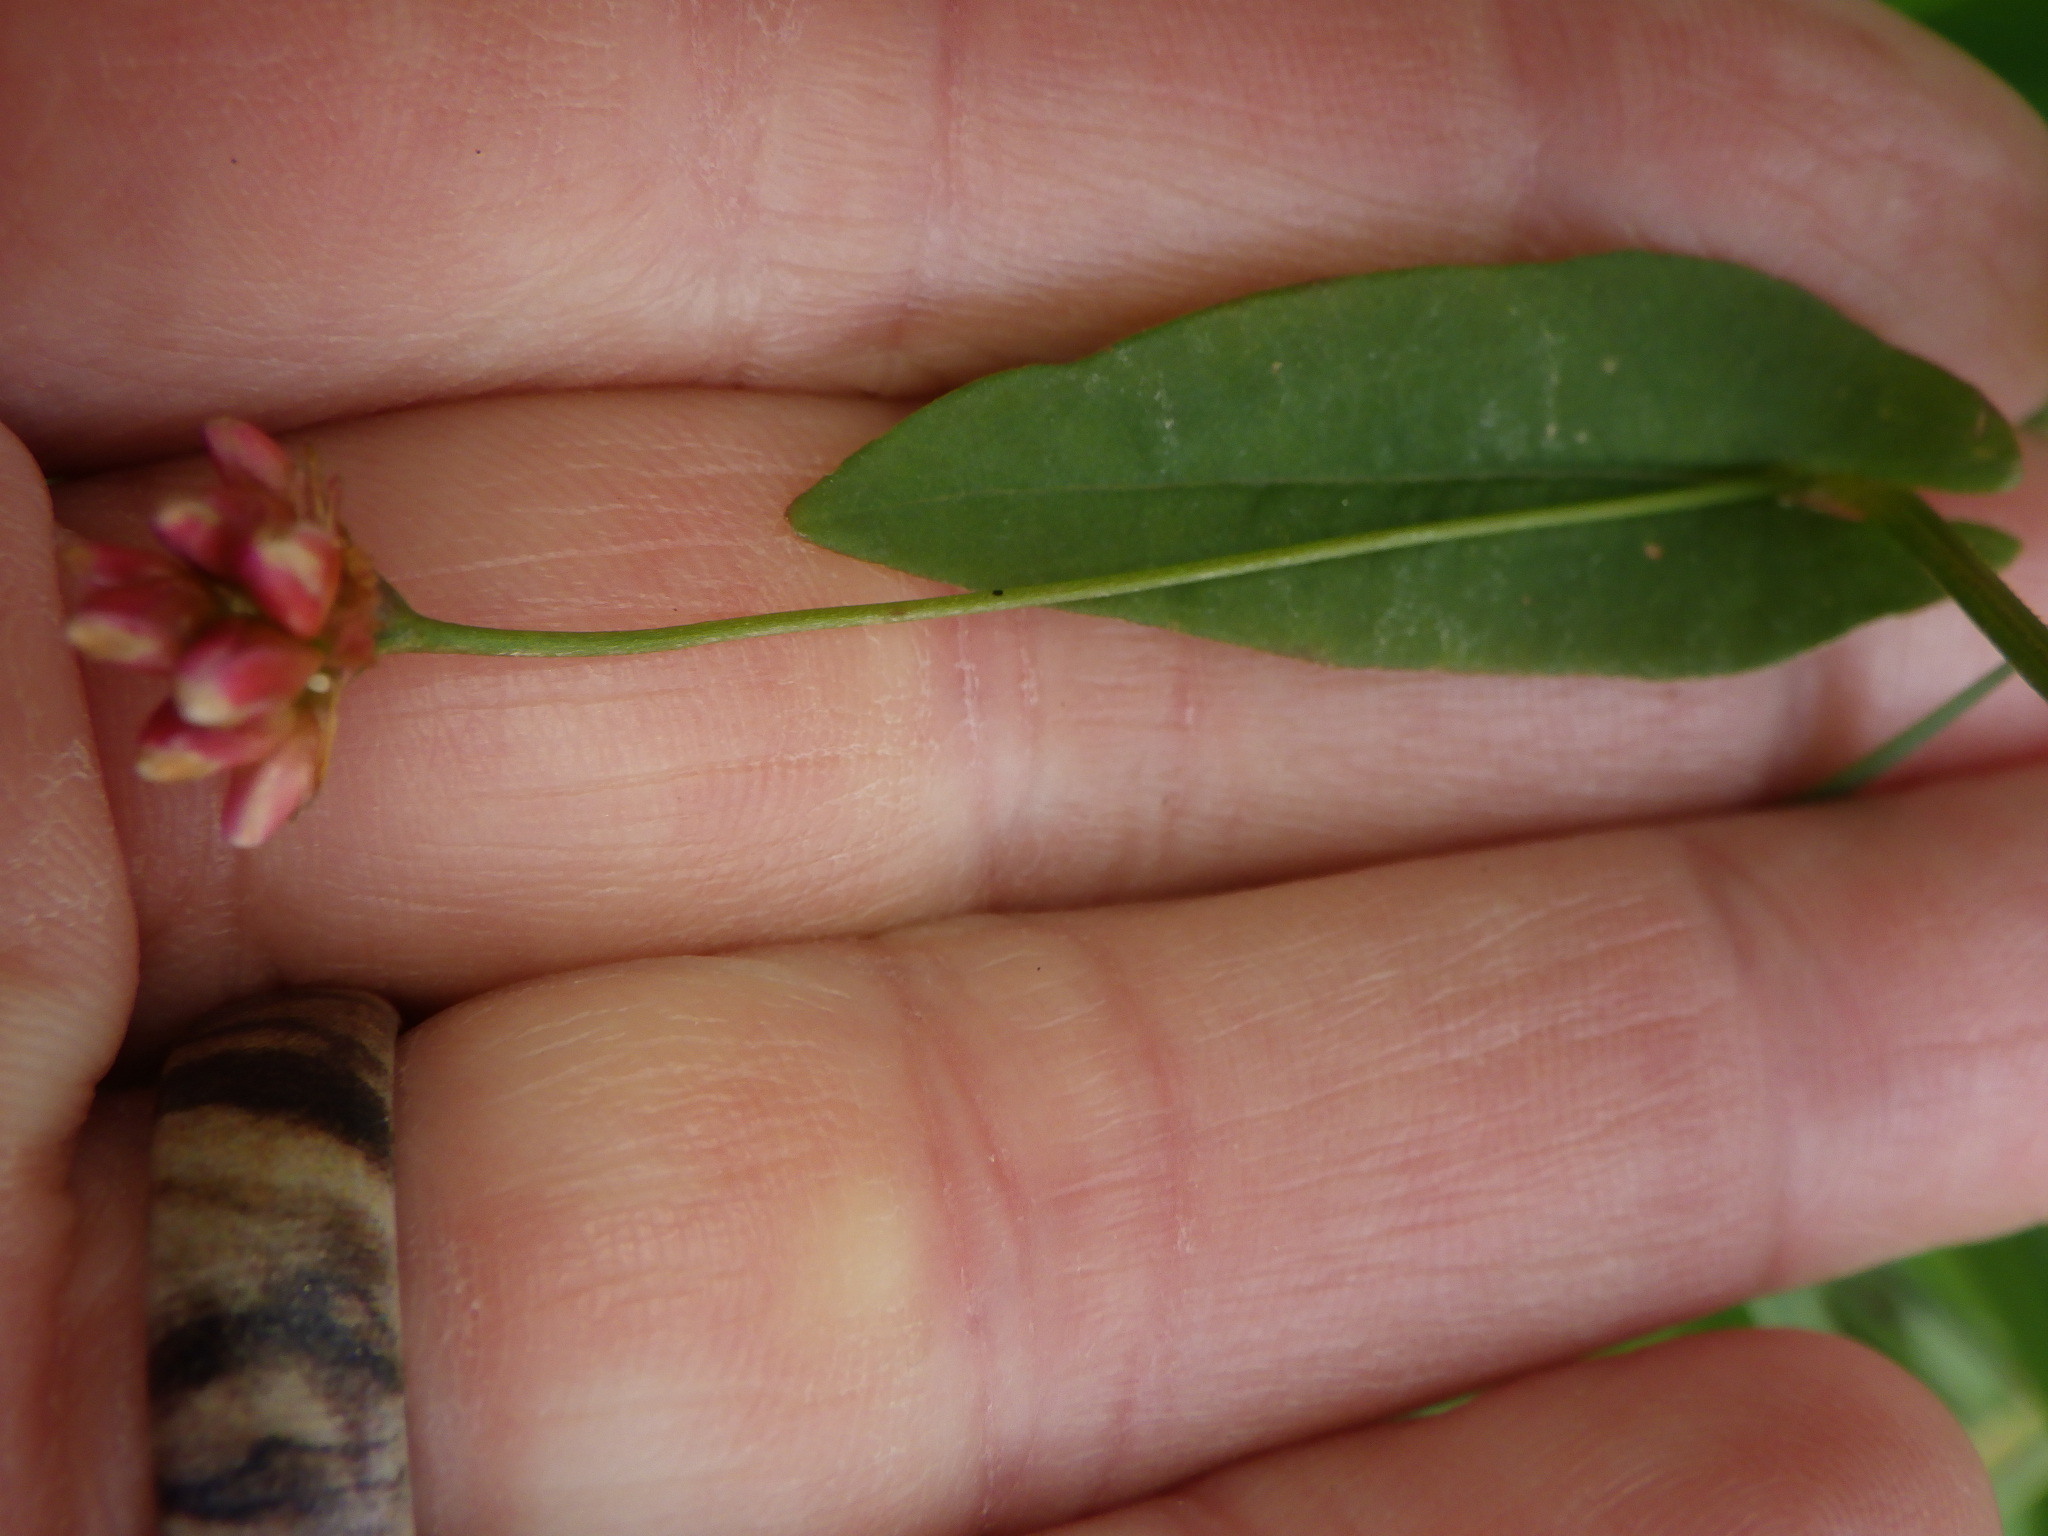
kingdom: Plantae
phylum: Tracheophyta
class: Magnoliopsida
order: Caryophyllales
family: Polygonaceae
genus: Persicaria
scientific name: Persicaria sagittata
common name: American tearthumb
